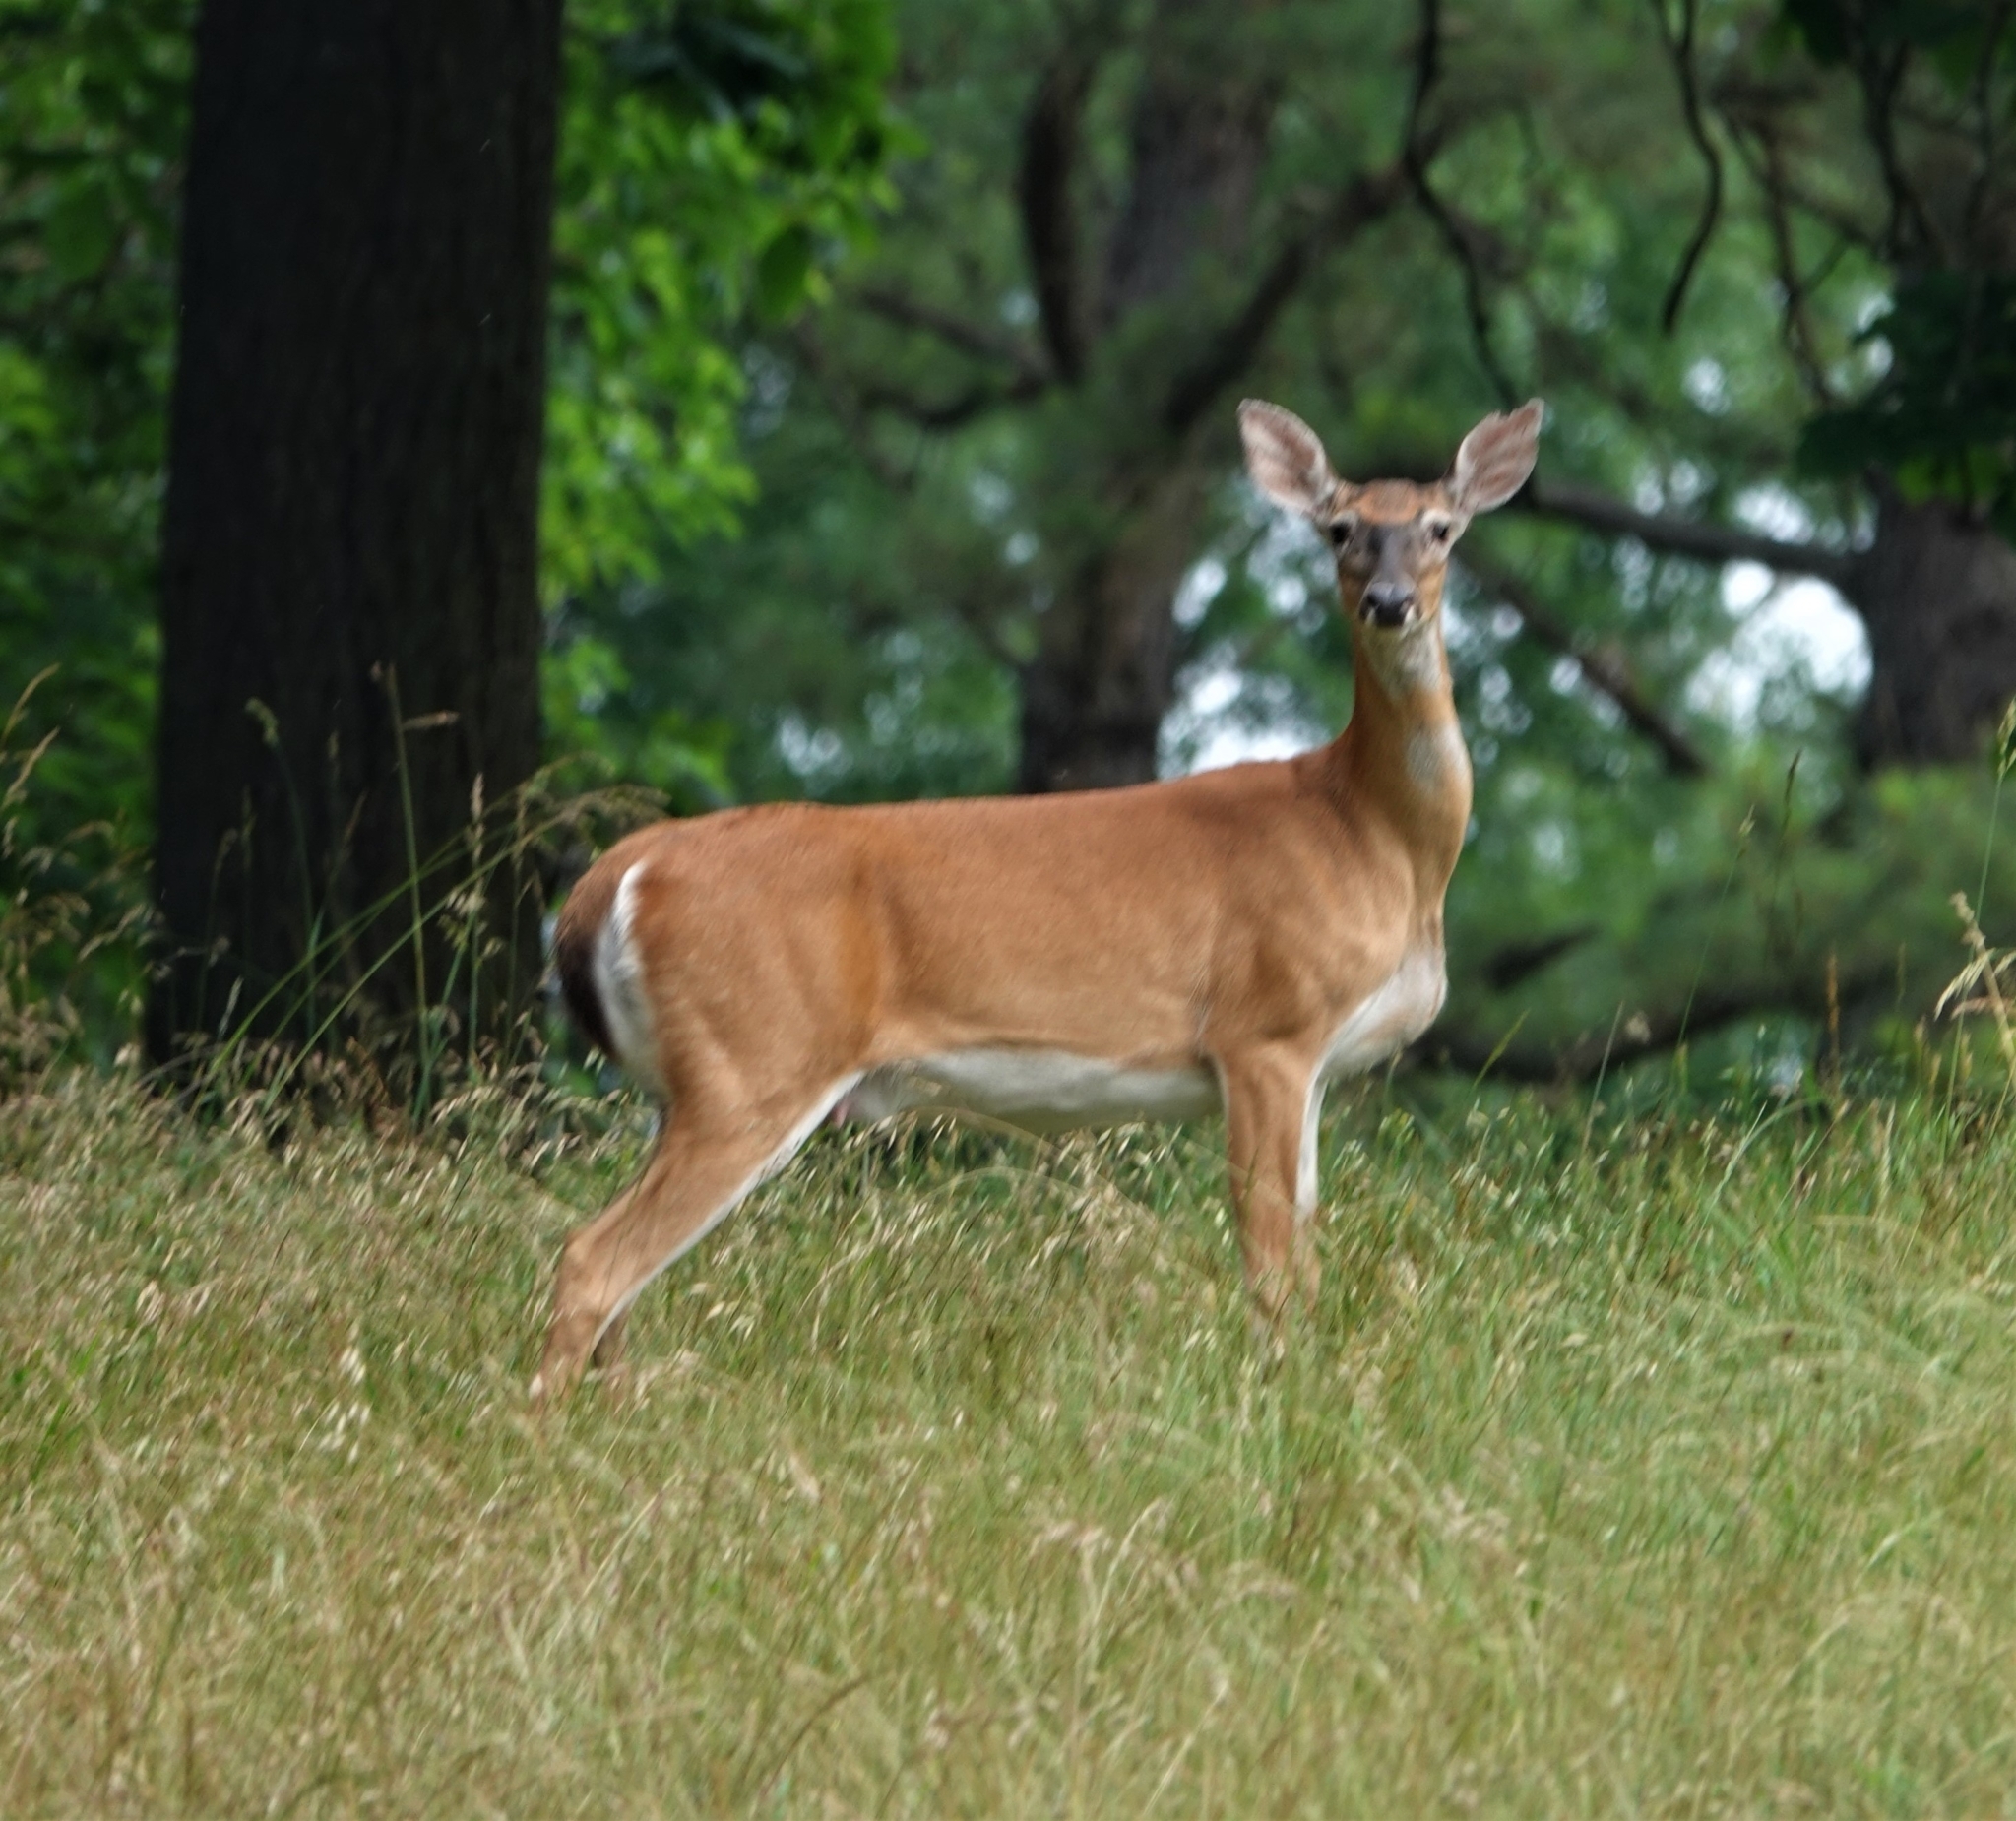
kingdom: Animalia
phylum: Chordata
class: Mammalia
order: Artiodactyla
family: Cervidae
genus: Odocoileus
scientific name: Odocoileus virginianus
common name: White-tailed deer
